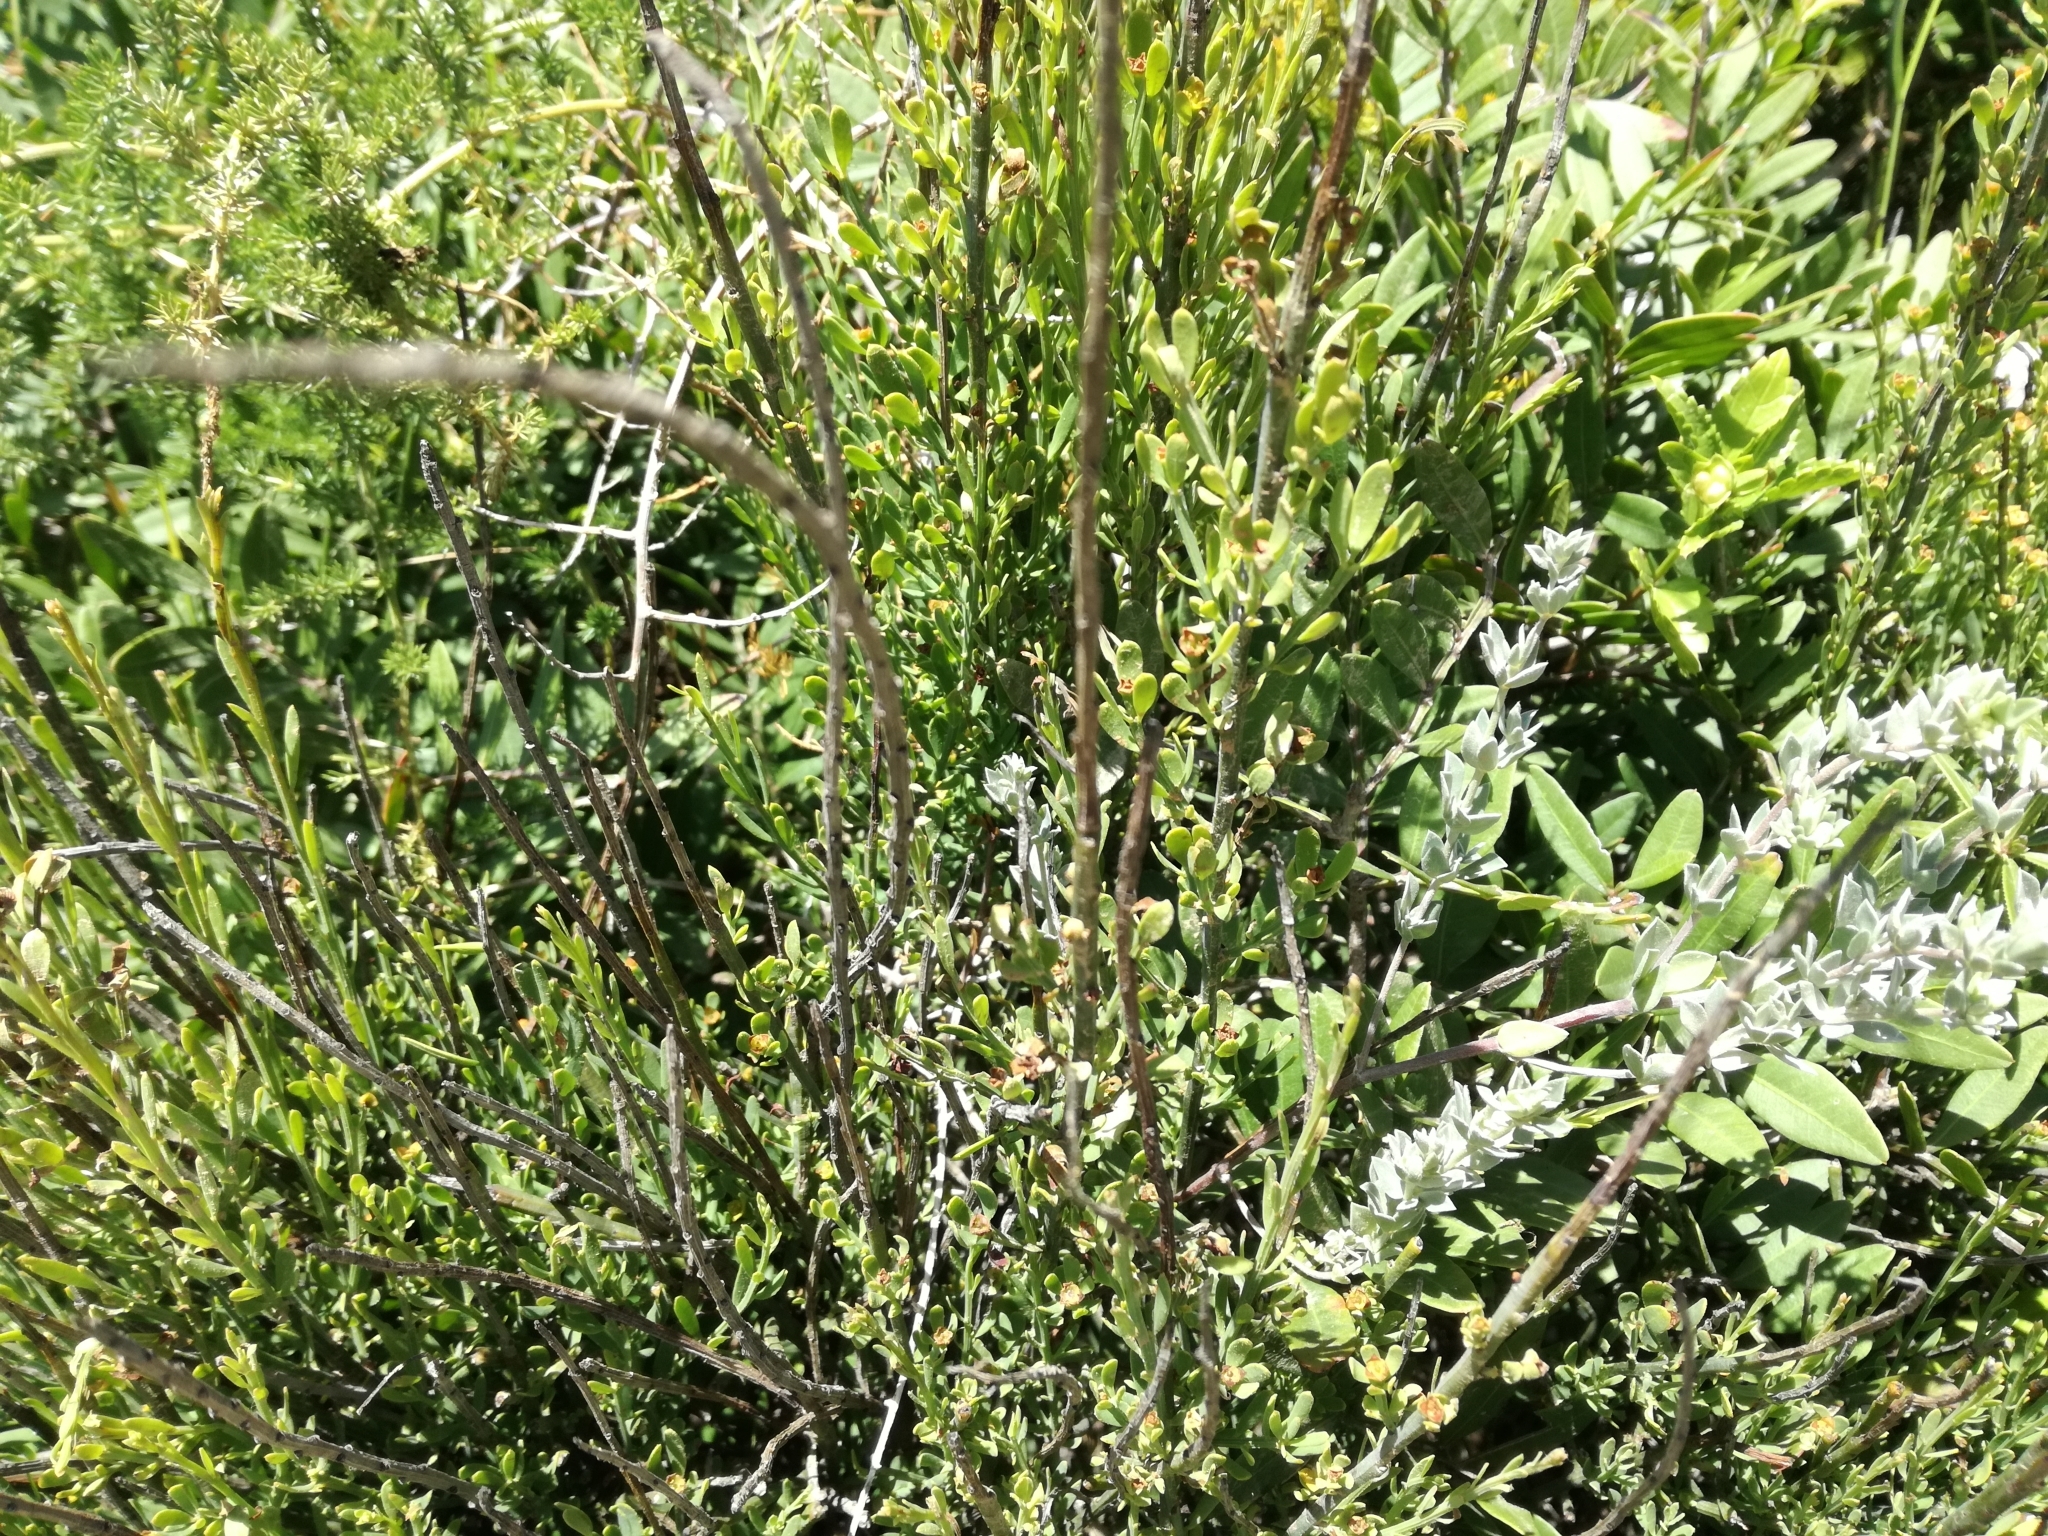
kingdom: Plantae
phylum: Tracheophyta
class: Gnetopsida
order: Ephedrales
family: Ephedraceae
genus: Ephedra
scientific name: Ephedra distachya
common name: Sea grape
